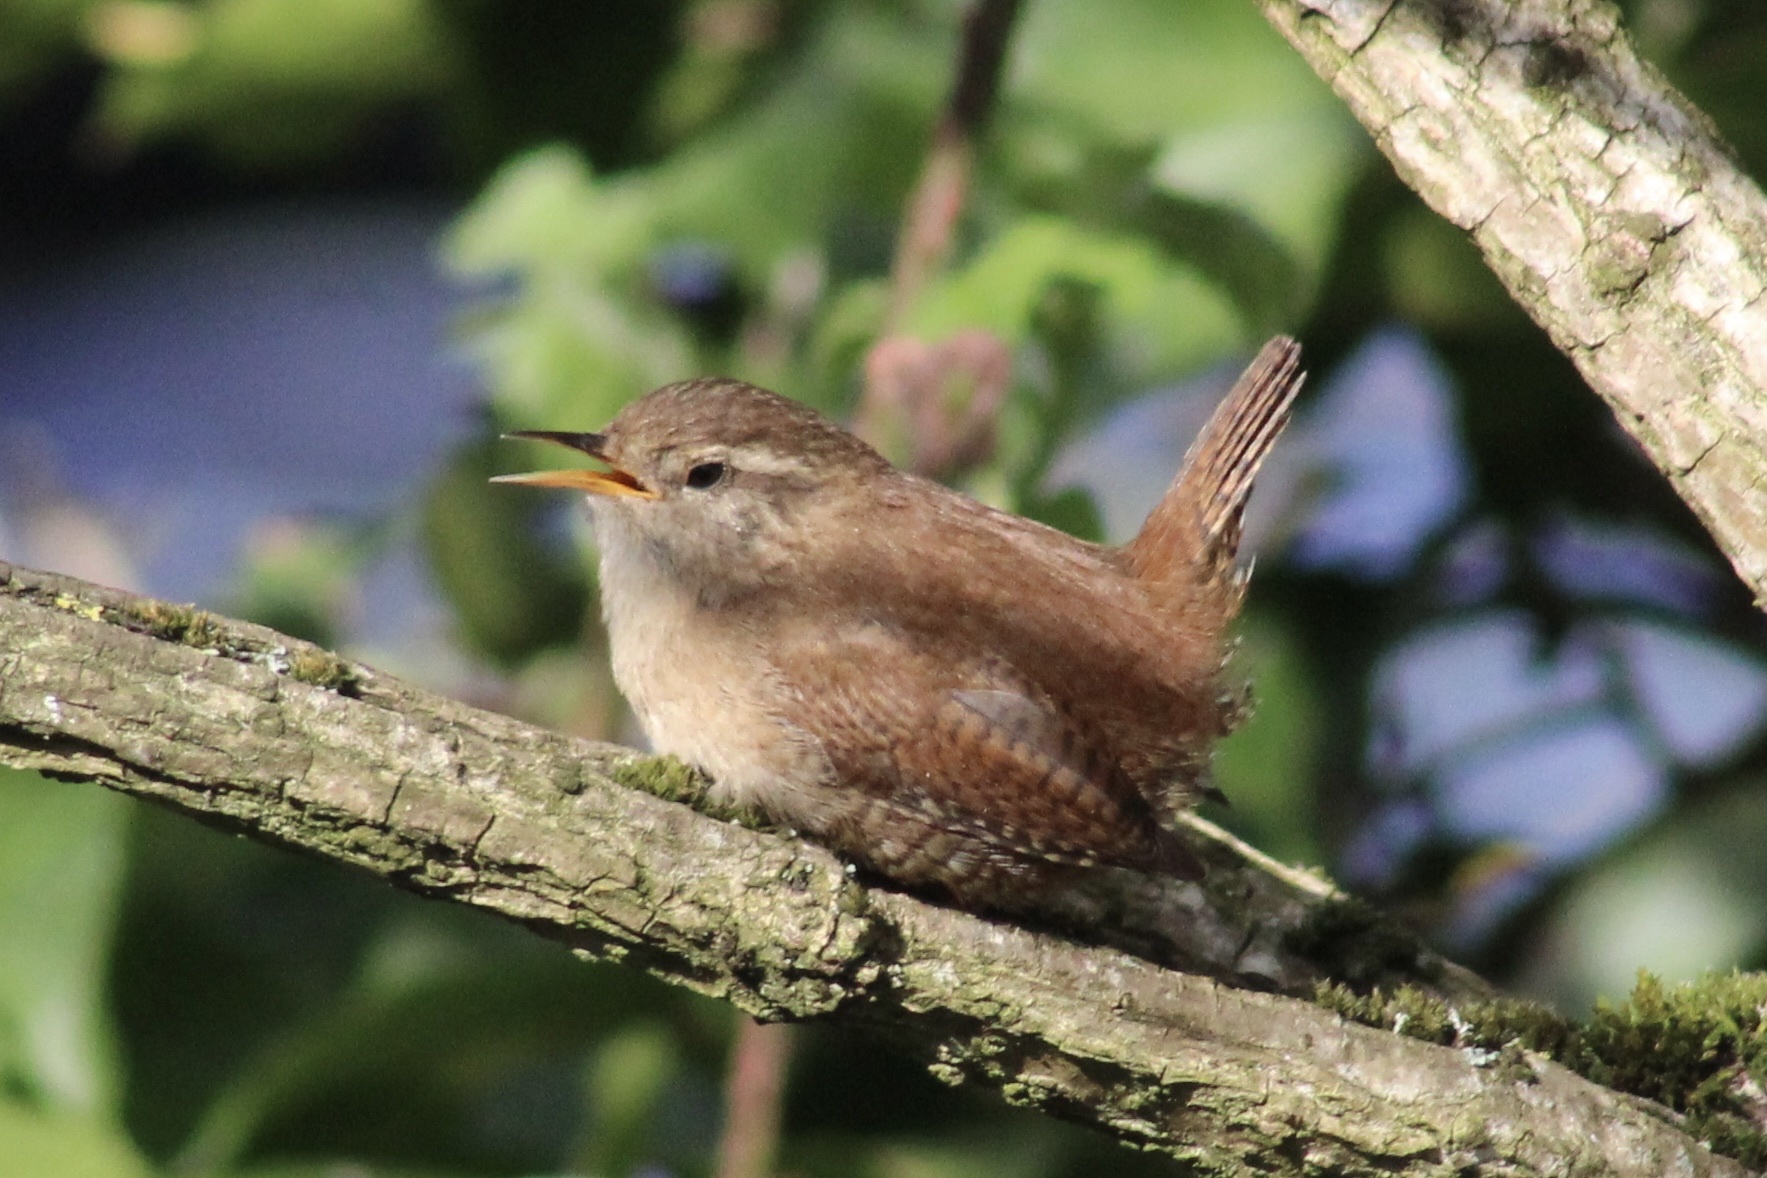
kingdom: Animalia
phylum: Chordata
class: Aves
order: Passeriformes
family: Troglodytidae
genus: Troglodytes
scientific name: Troglodytes troglodytes
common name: Eurasian wren
